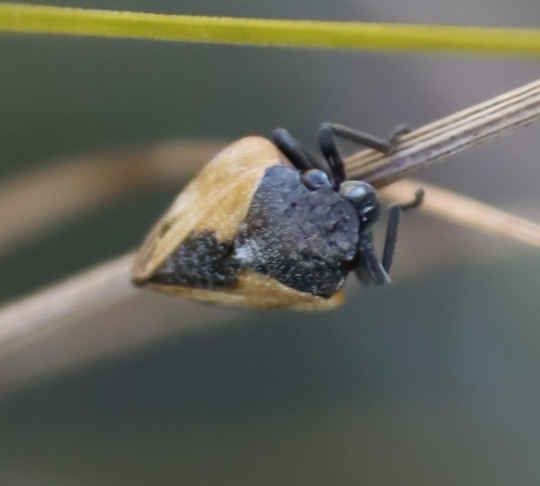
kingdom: Animalia
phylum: Arthropoda
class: Insecta
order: Hemiptera
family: Cercopidae
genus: Rhinaulax
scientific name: Rhinaulax analis
